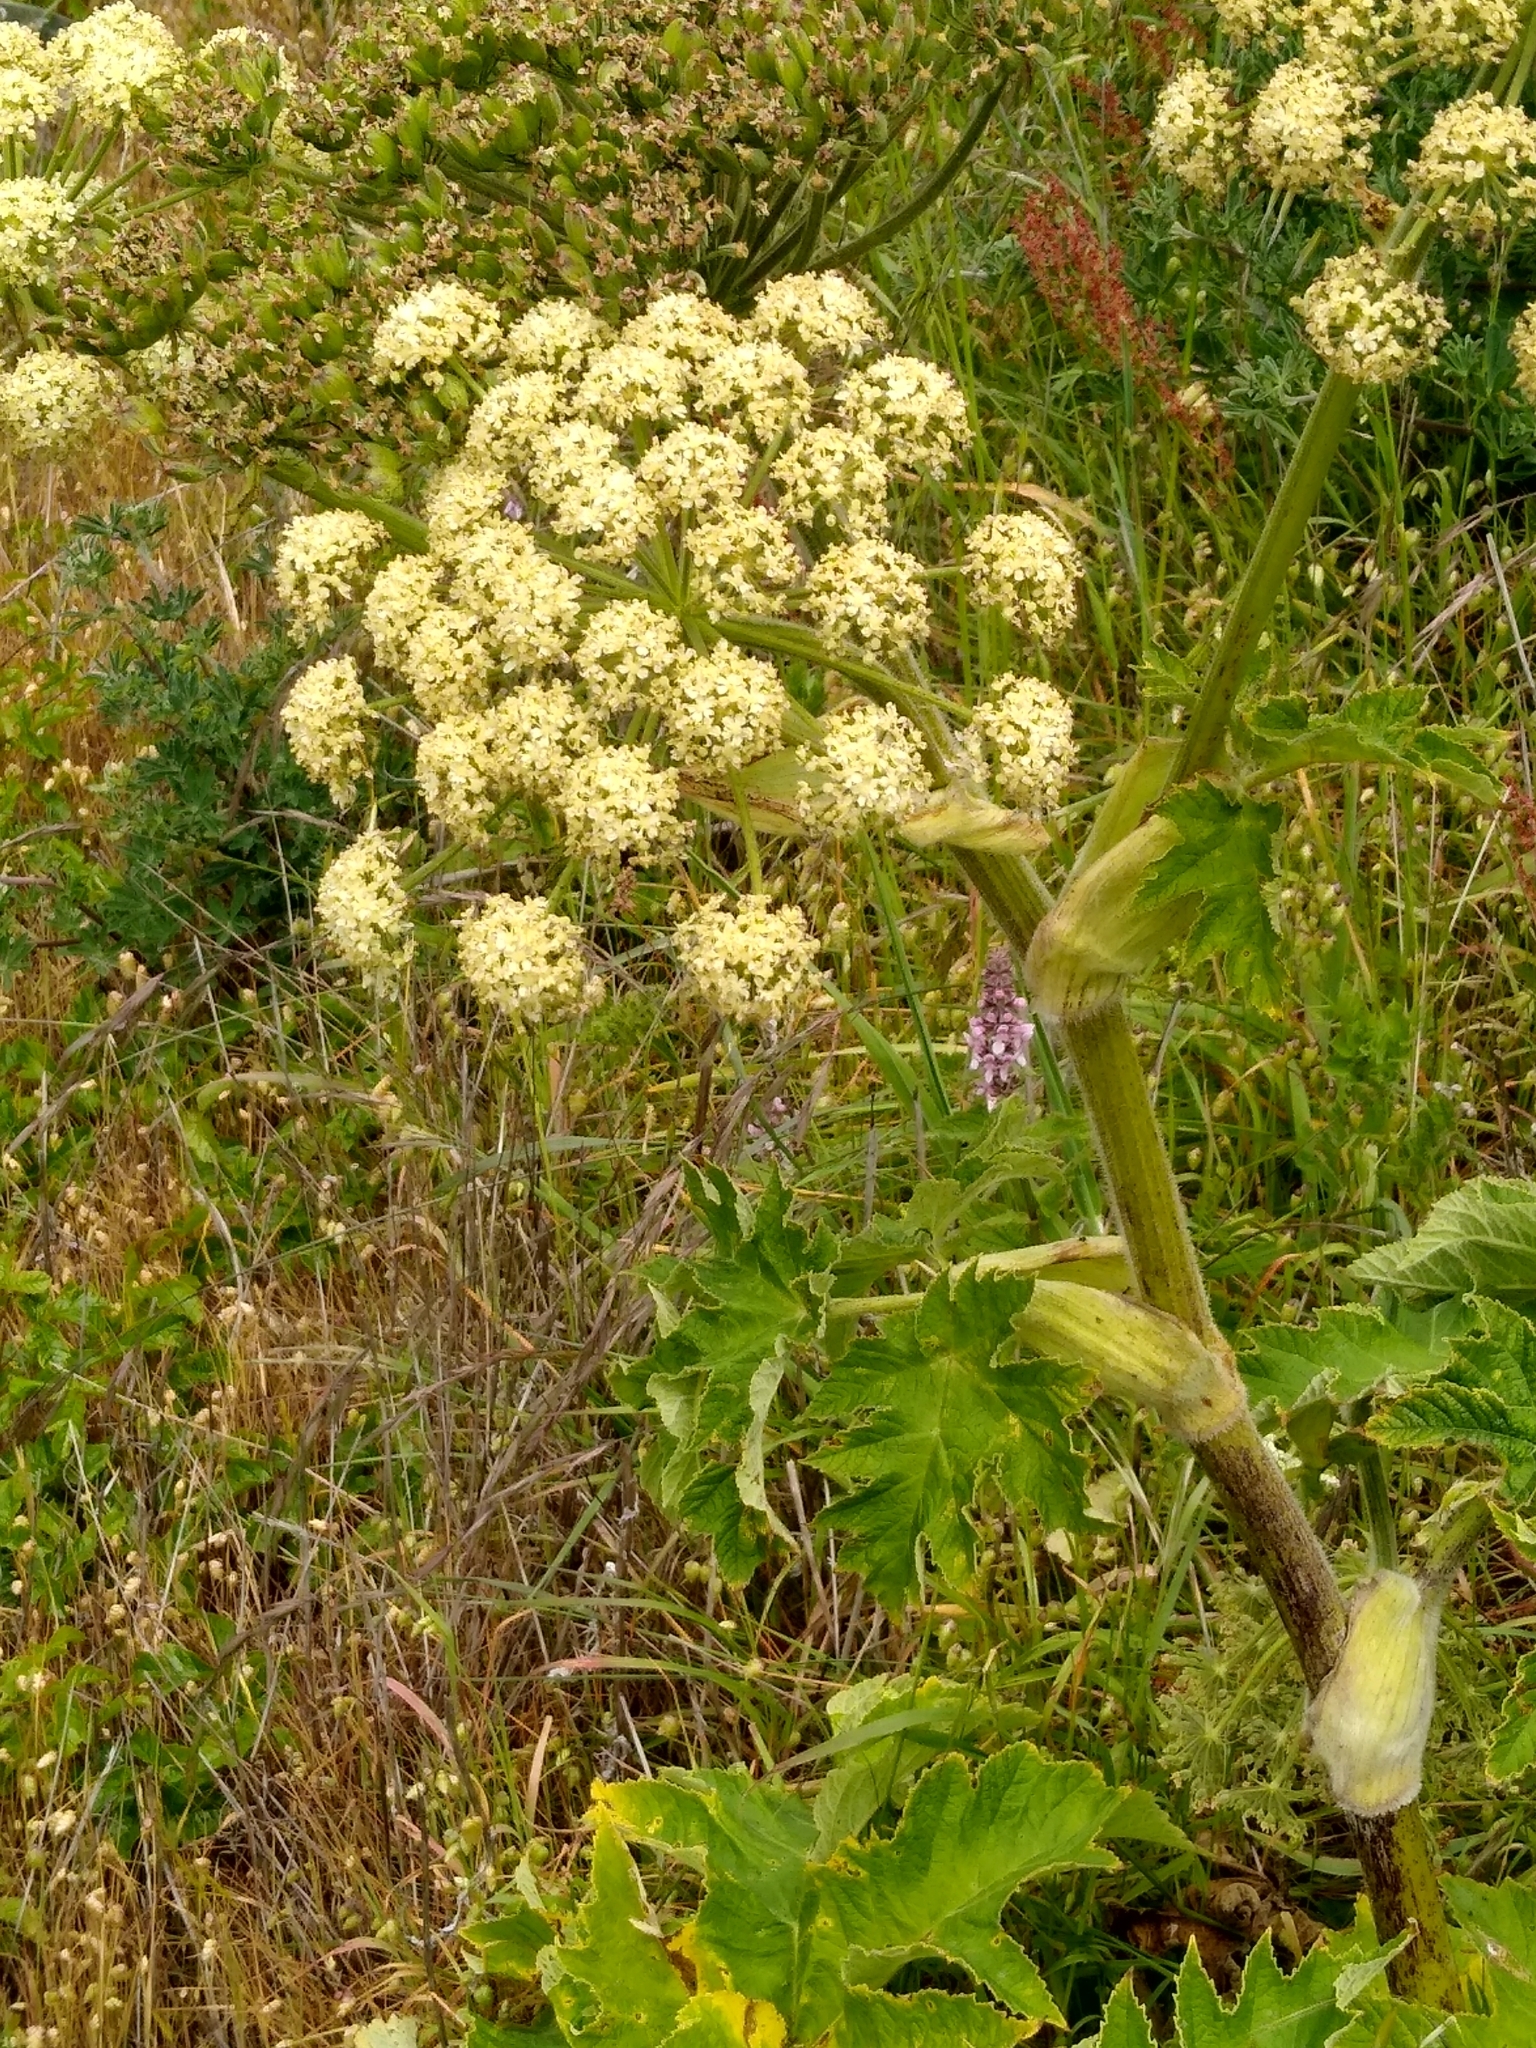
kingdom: Plantae
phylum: Tracheophyta
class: Magnoliopsida
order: Apiales
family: Apiaceae
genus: Heracleum
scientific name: Heracleum maximum
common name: American cow parsnip
